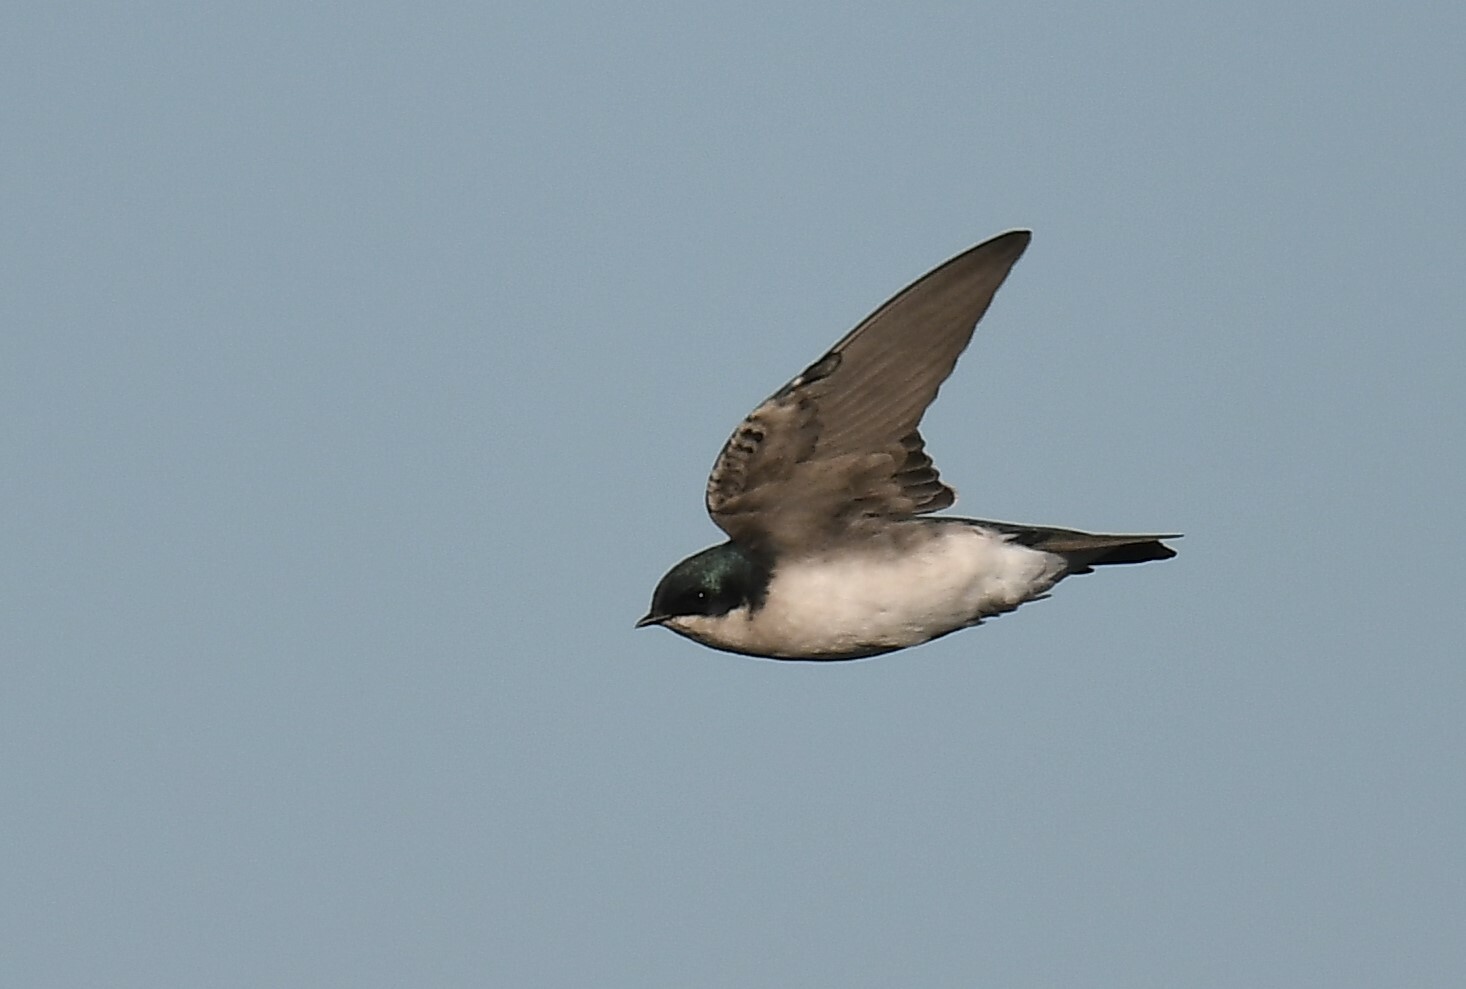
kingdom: Animalia
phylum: Chordata
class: Aves
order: Passeriformes
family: Hirundinidae
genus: Tachycineta
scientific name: Tachycineta bicolor
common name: Tree swallow
